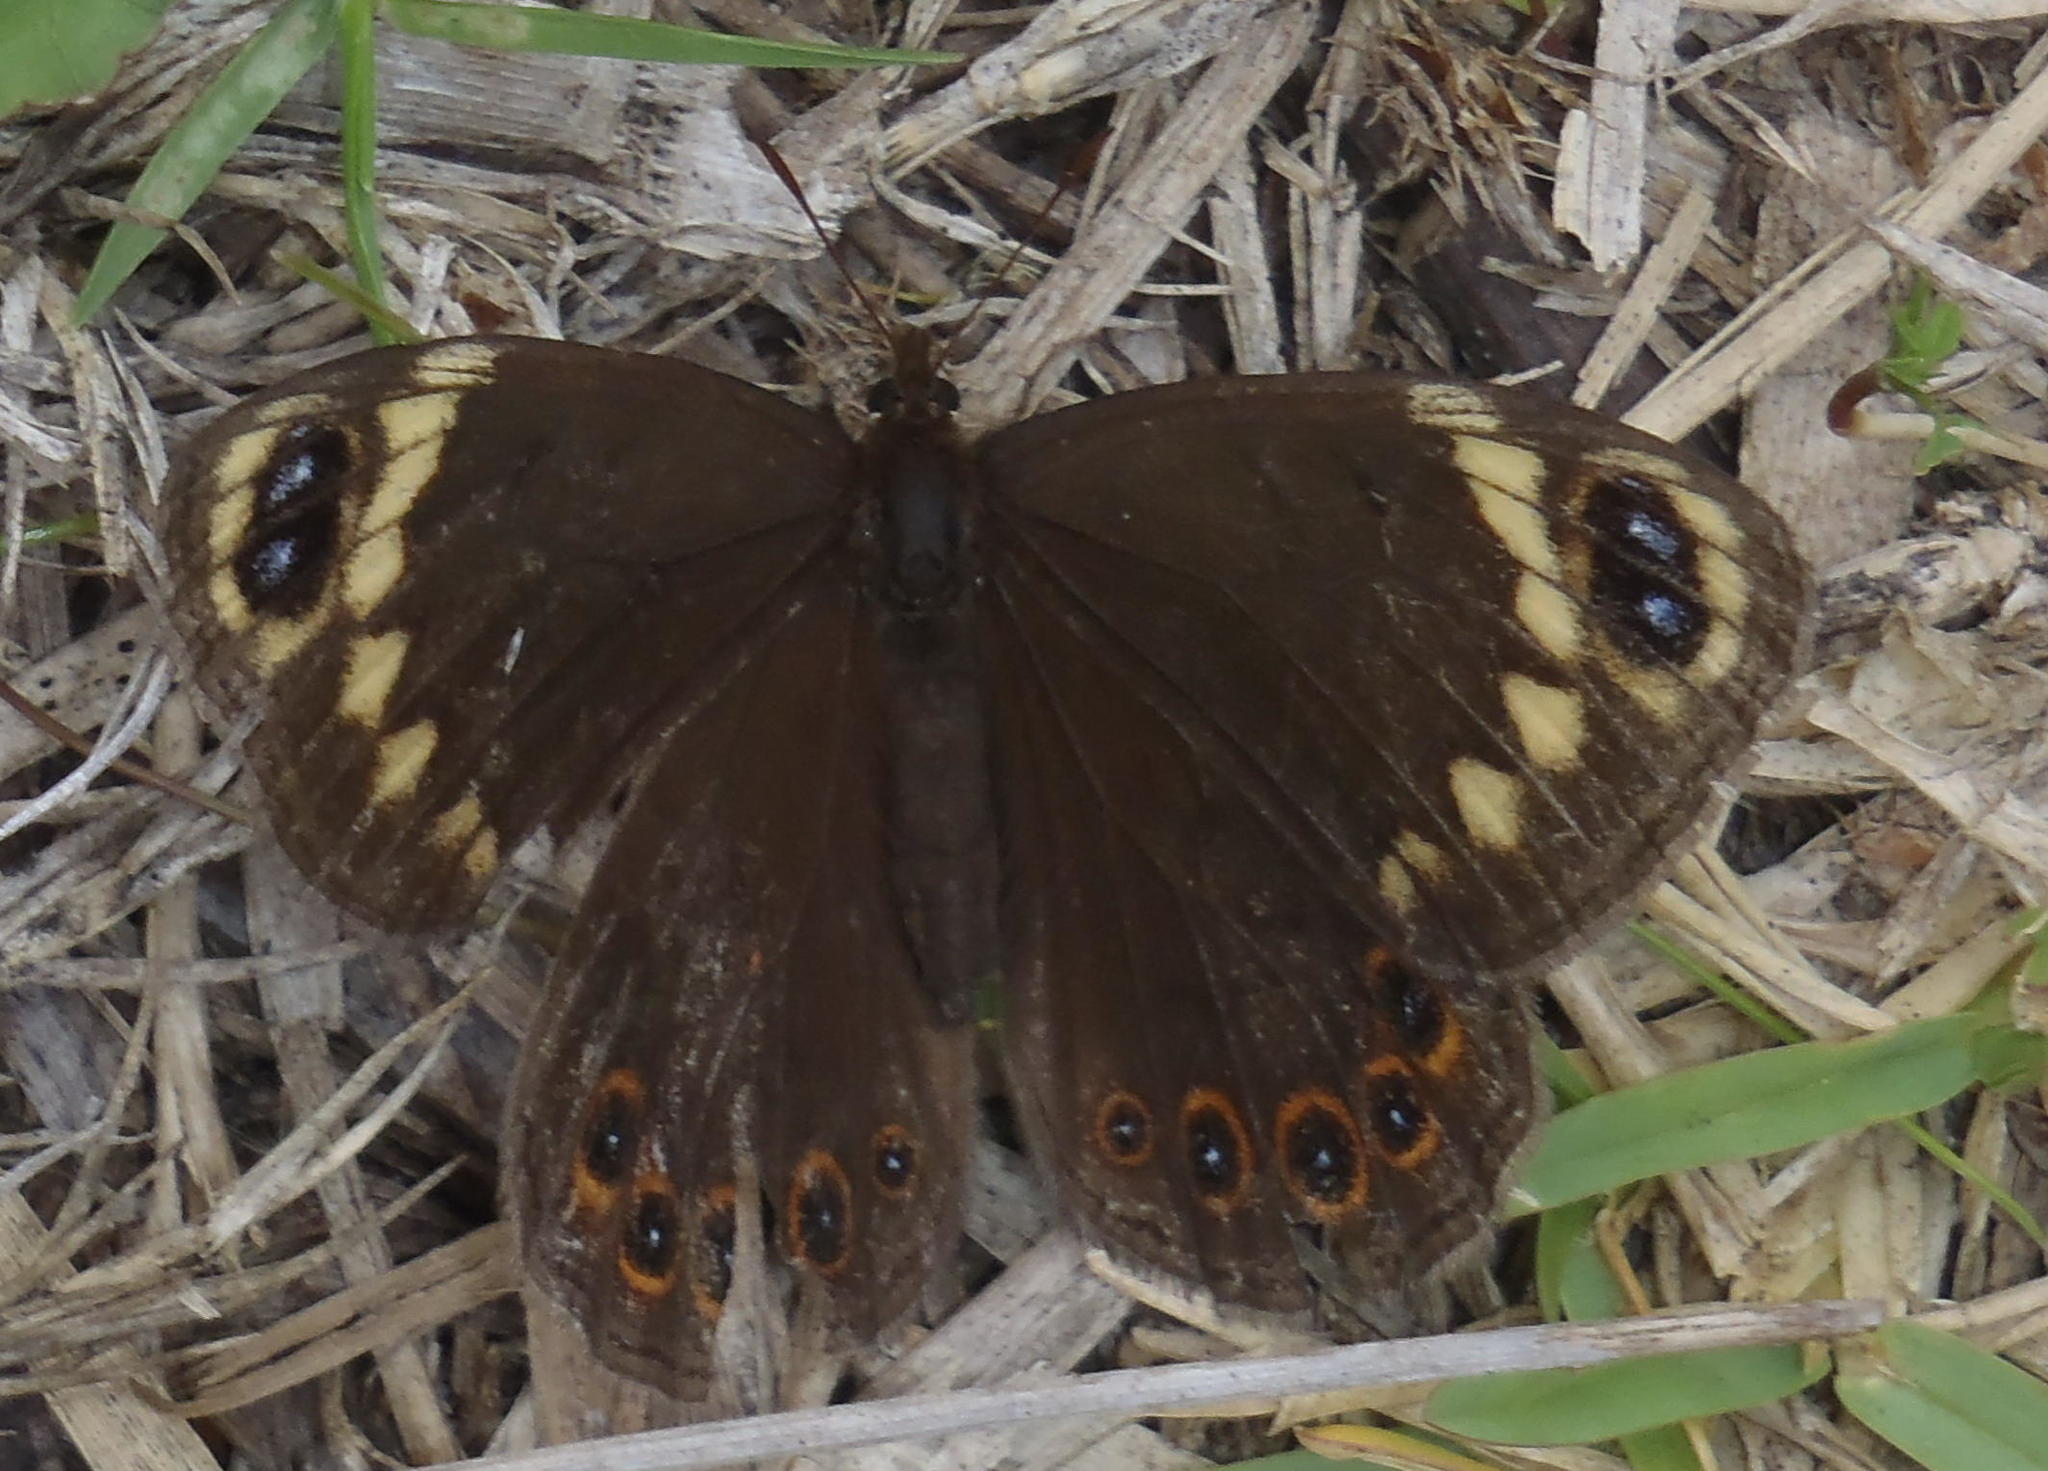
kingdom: Animalia
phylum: Arthropoda
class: Insecta
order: Lepidoptera
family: Nymphalidae
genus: Dira
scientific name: Dira clytus
